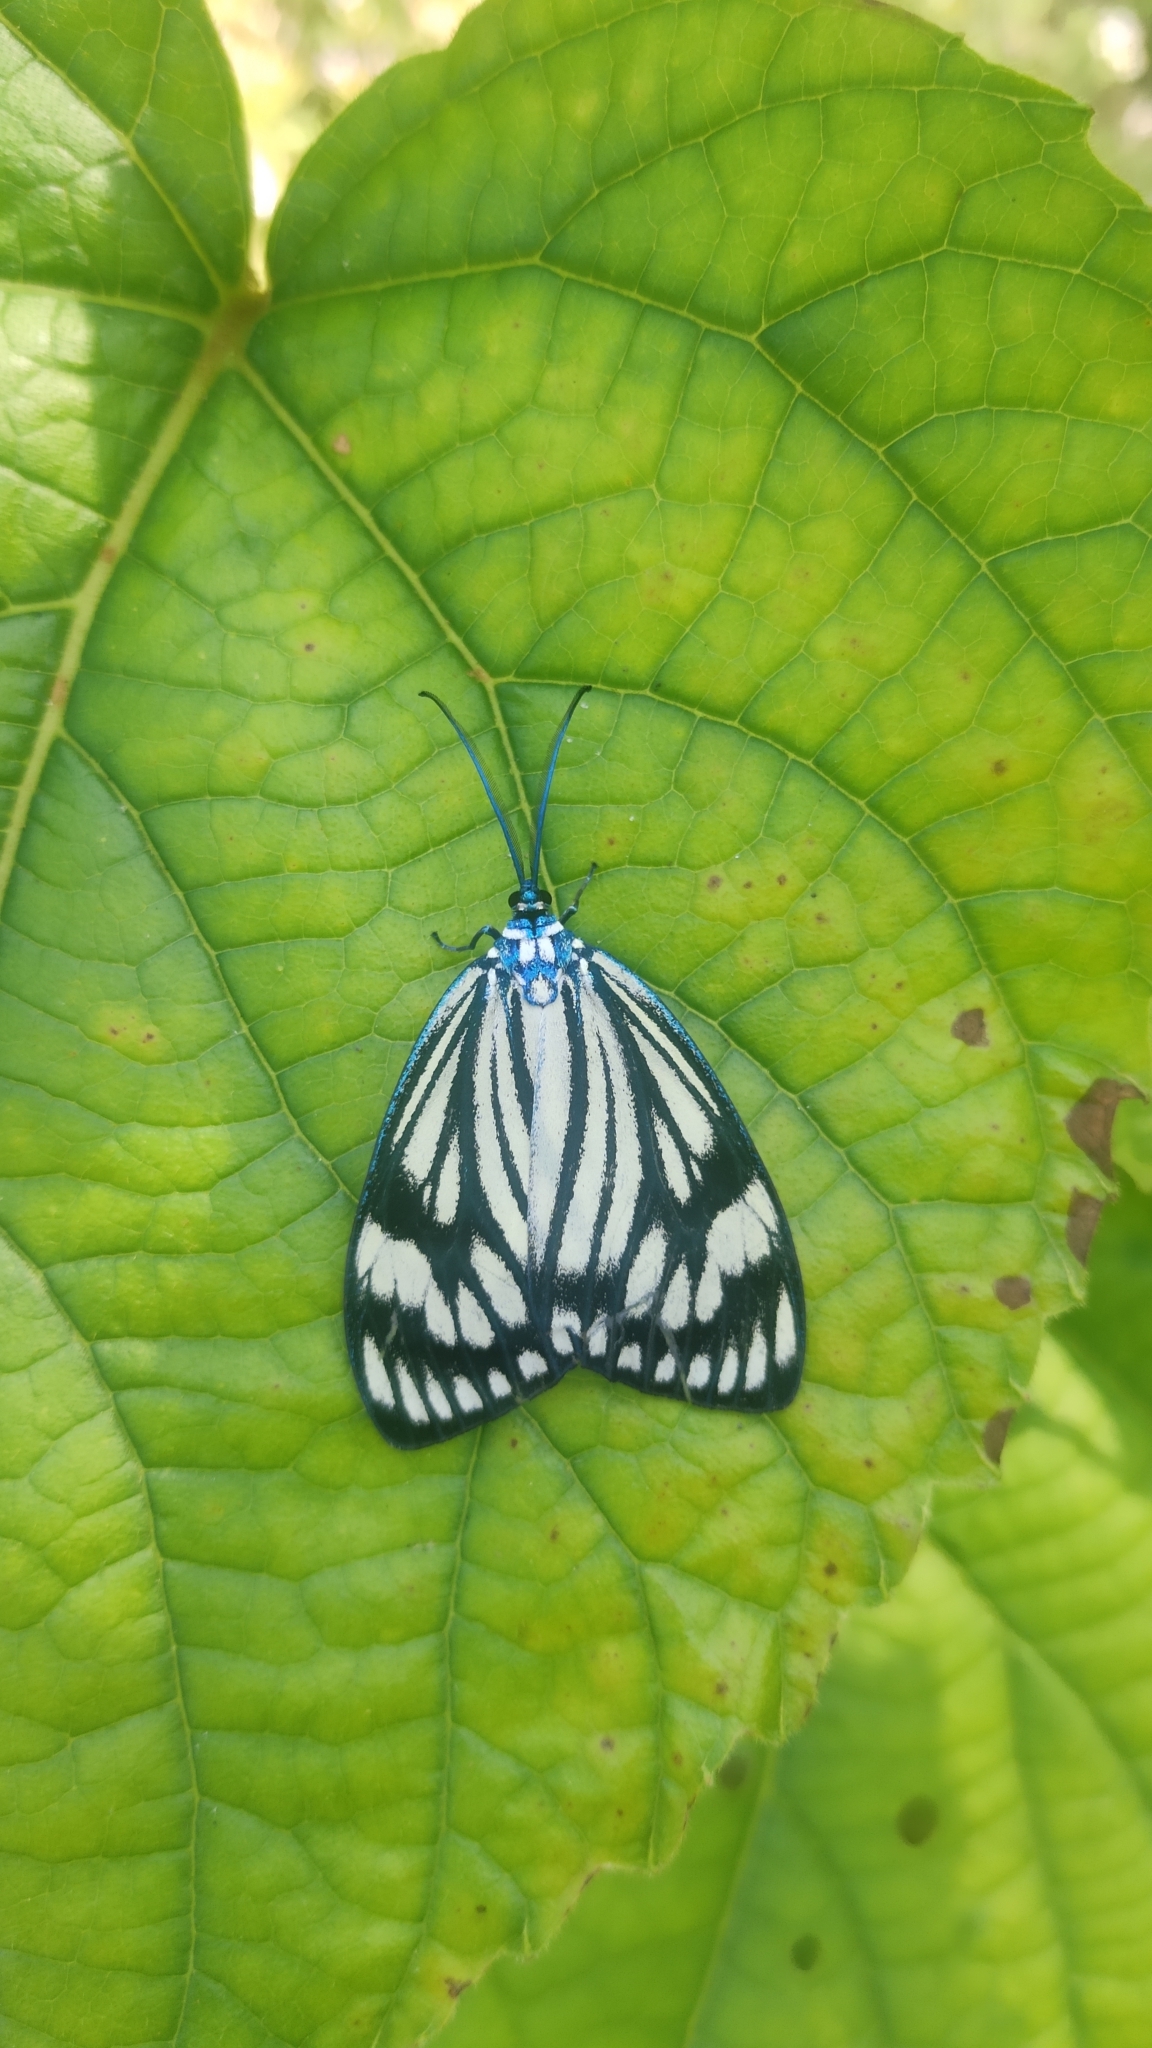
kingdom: Animalia
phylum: Arthropoda
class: Insecta
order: Lepidoptera
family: Zygaenidae
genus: Cyclosia
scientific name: Cyclosia
